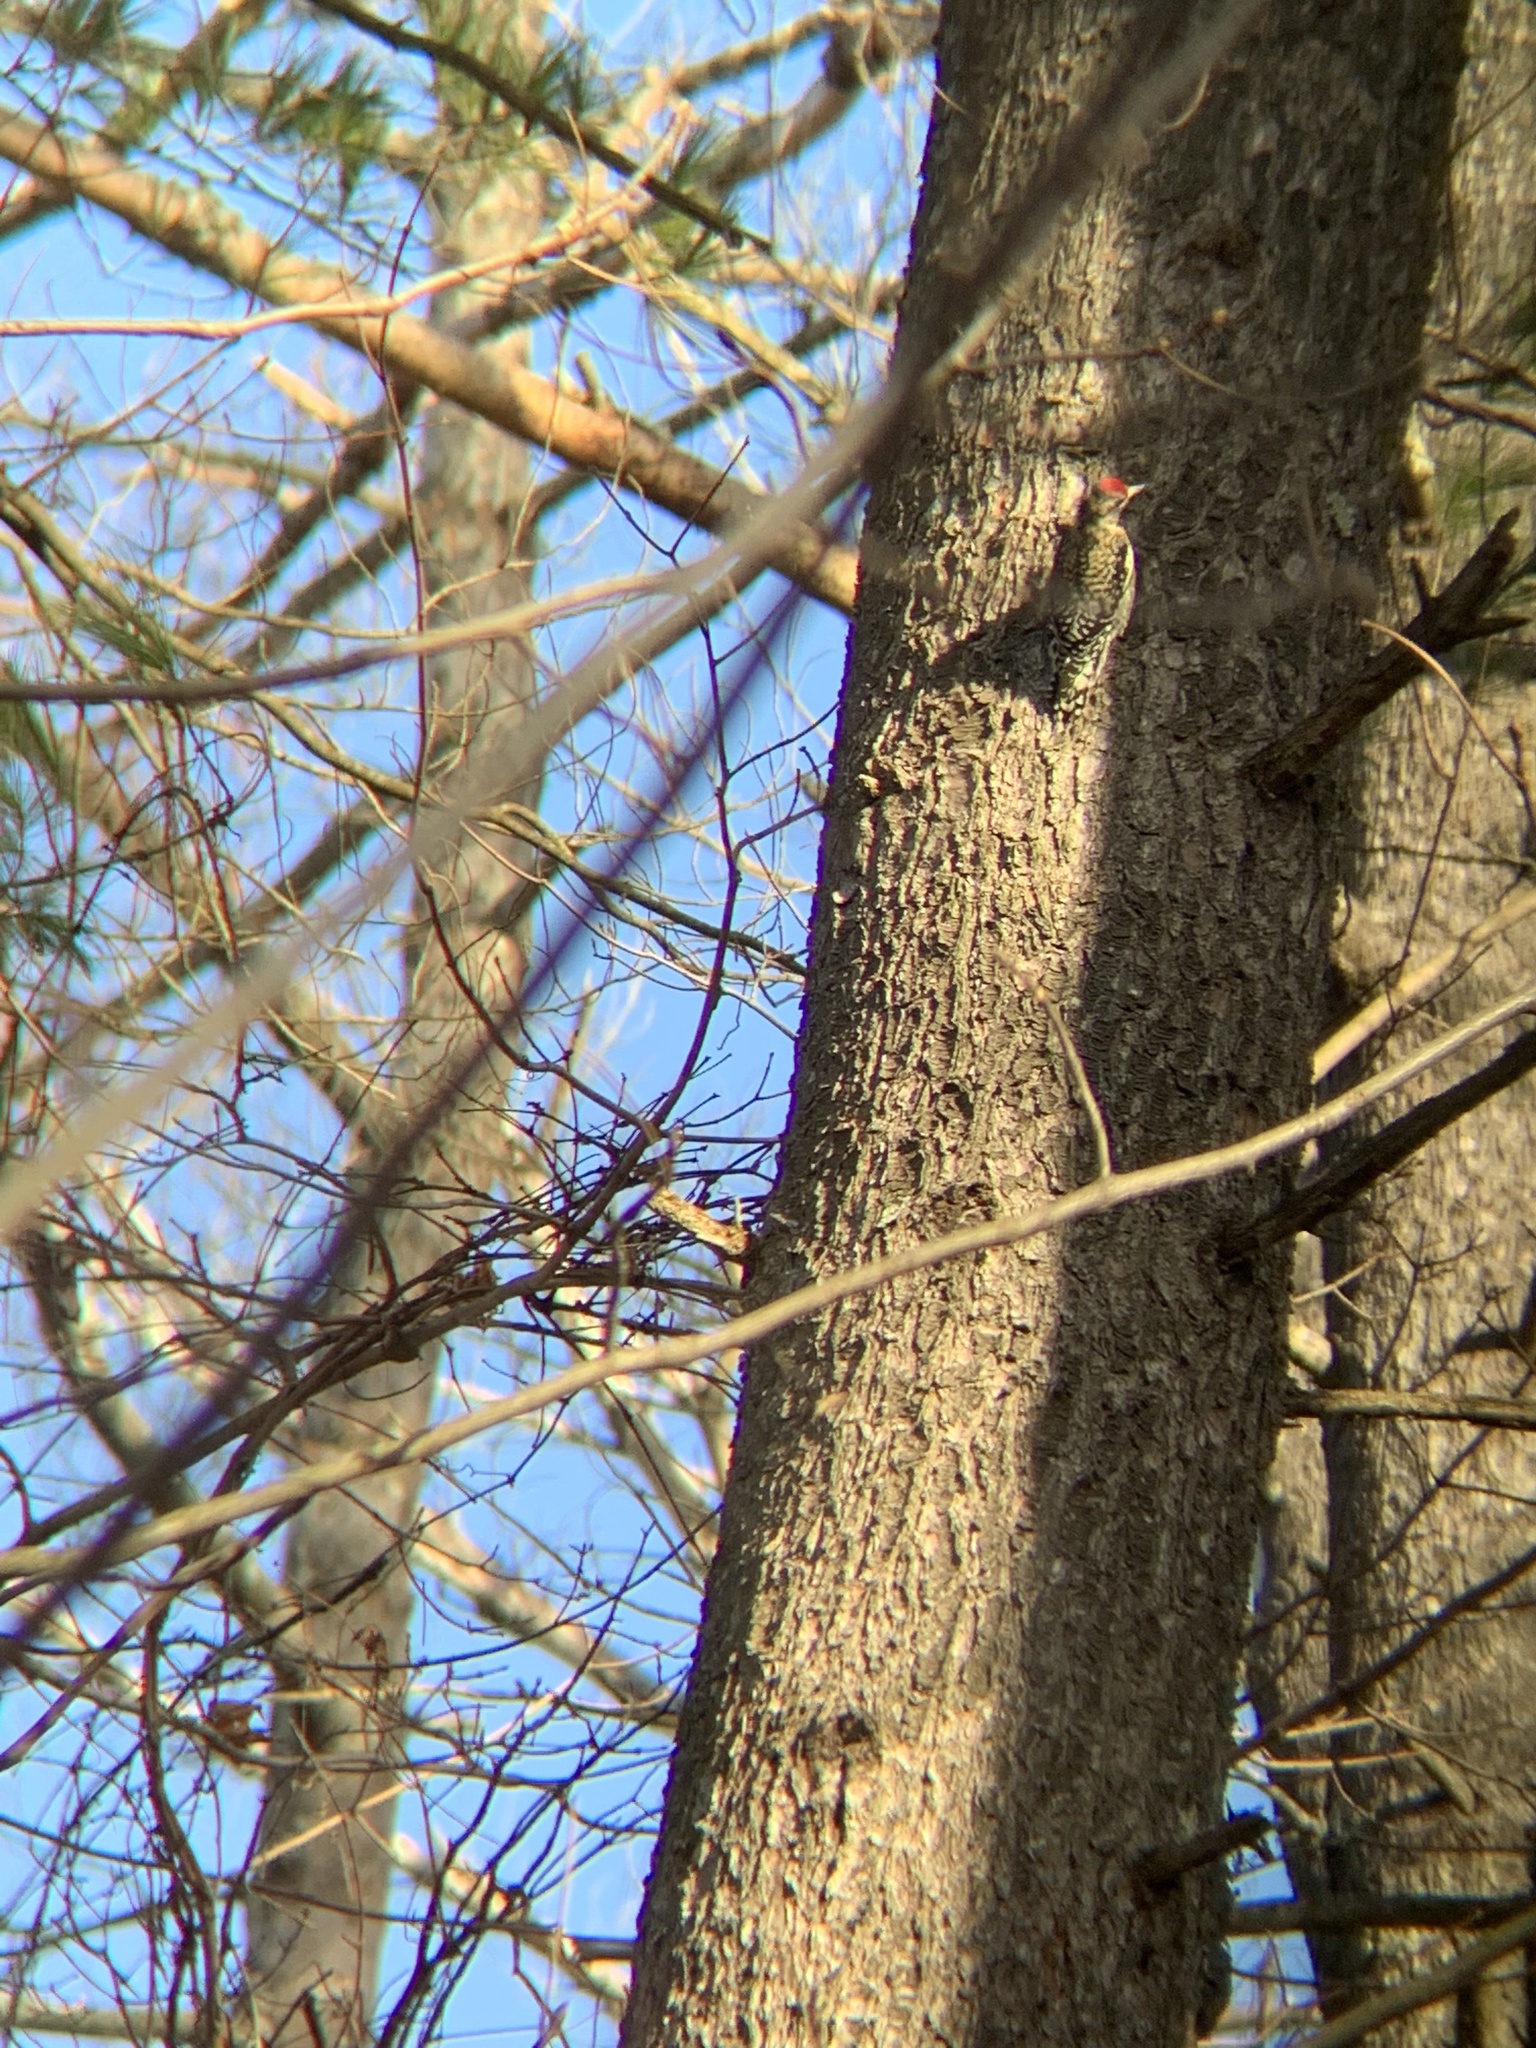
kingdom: Animalia
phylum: Chordata
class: Aves
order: Piciformes
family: Picidae
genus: Sphyrapicus
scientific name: Sphyrapicus varius
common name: Yellow-bellied sapsucker
